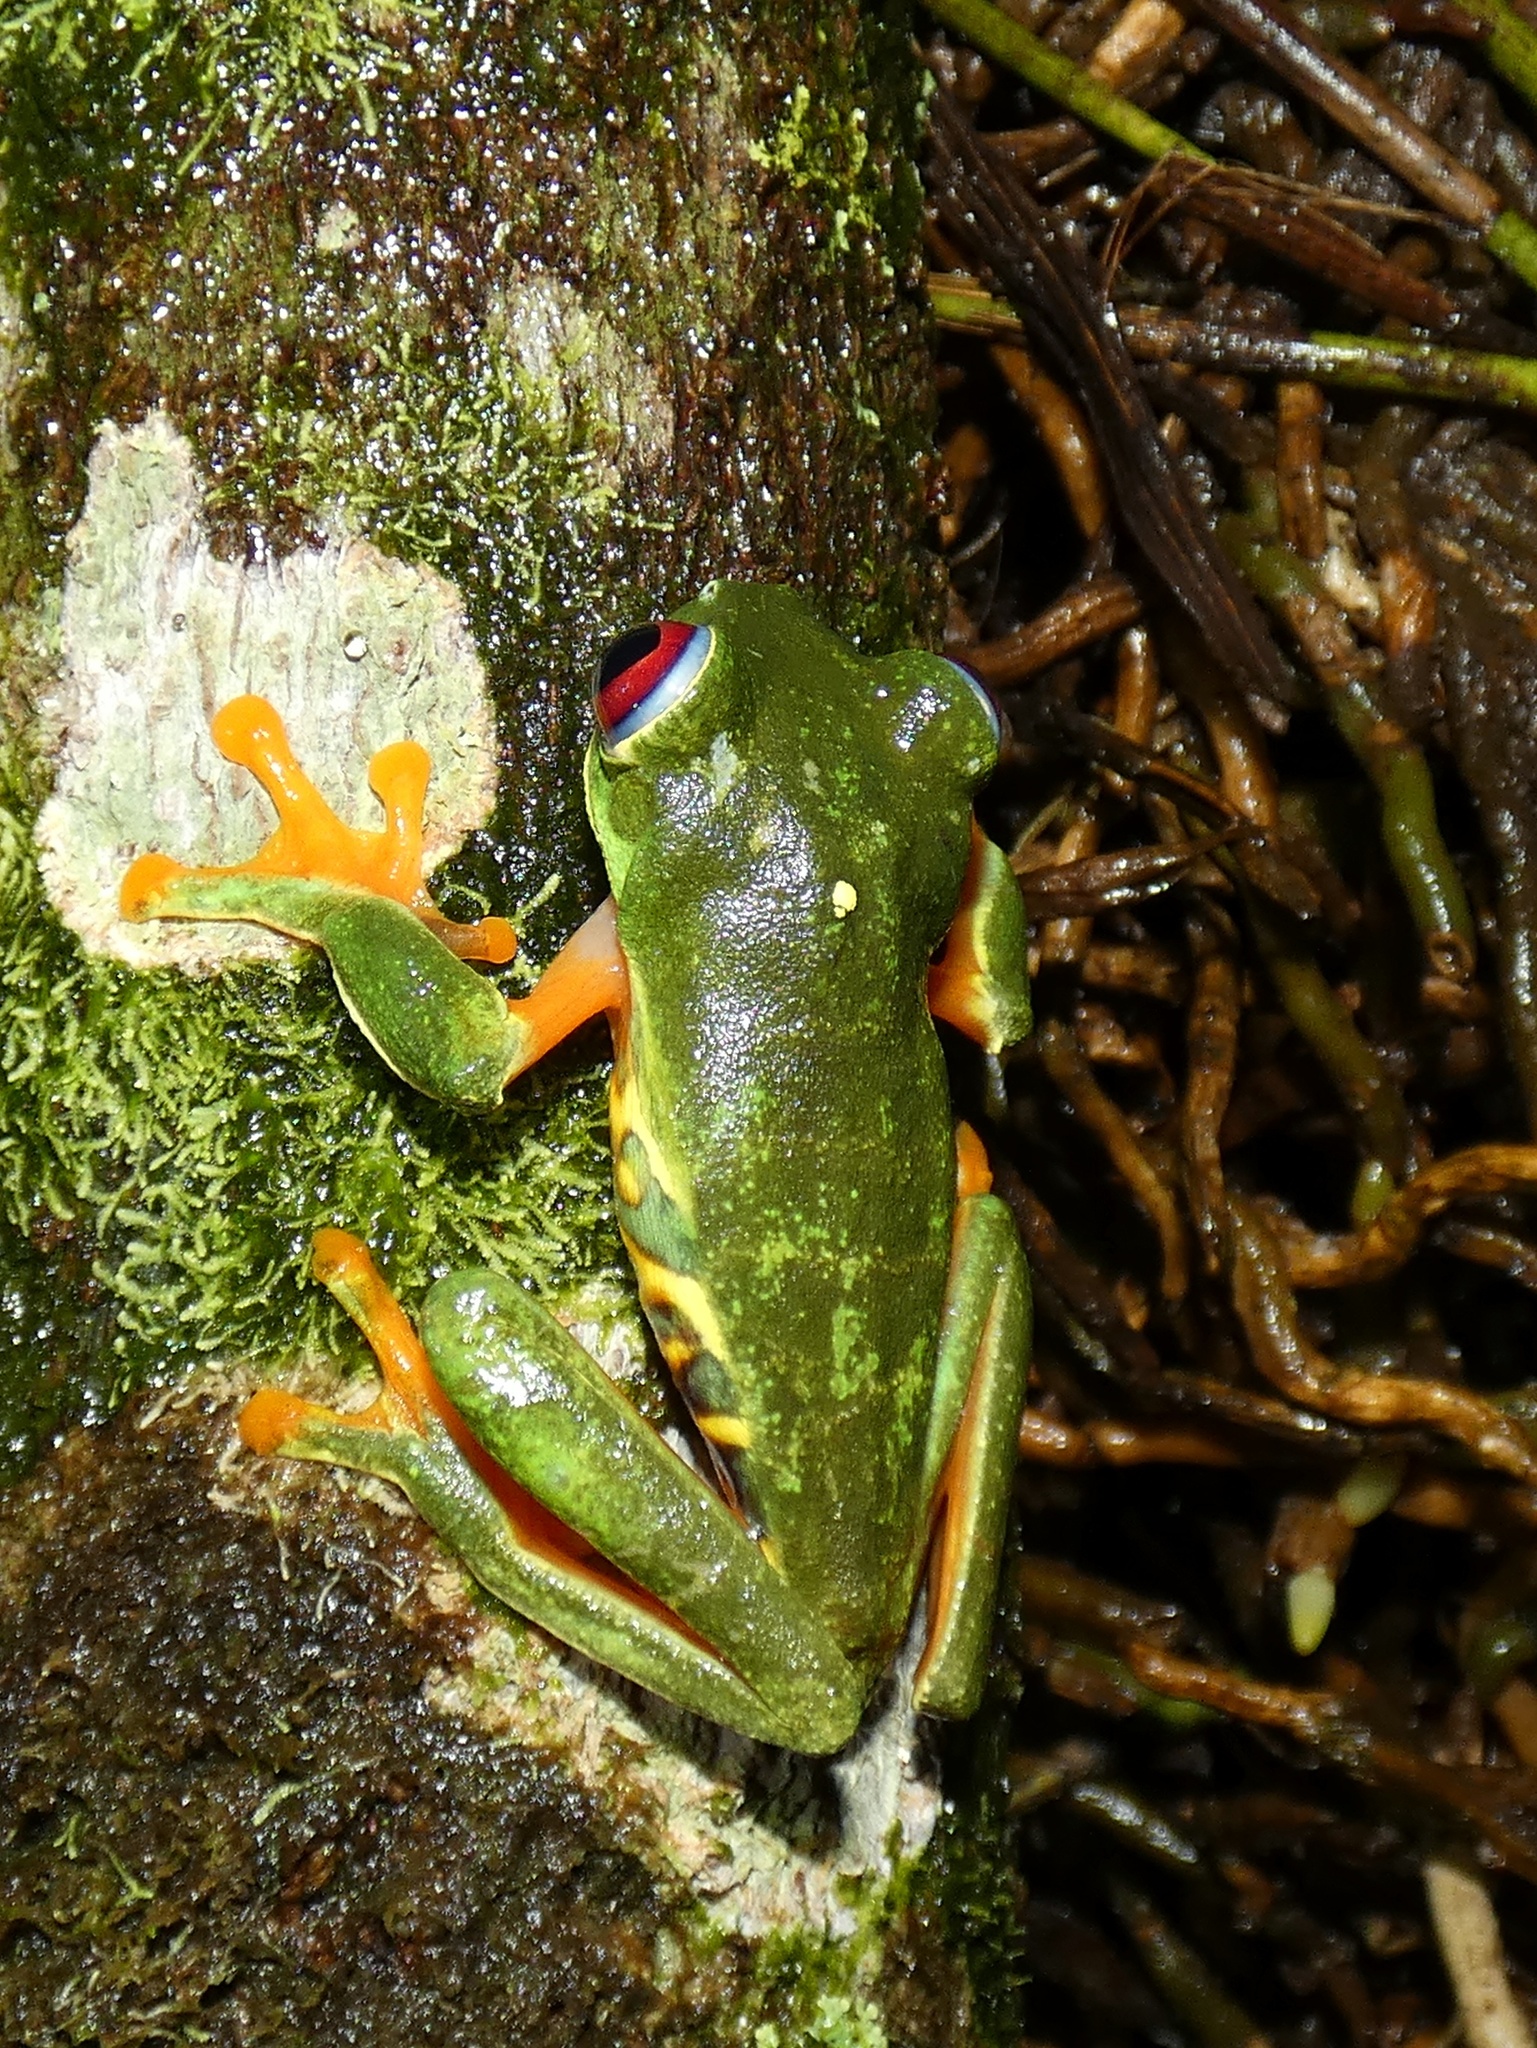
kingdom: Animalia
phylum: Chordata
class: Amphibia
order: Anura
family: Phyllomedusidae
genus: Agalychnis
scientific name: Agalychnis callidryas
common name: Red-eyed treefrog
